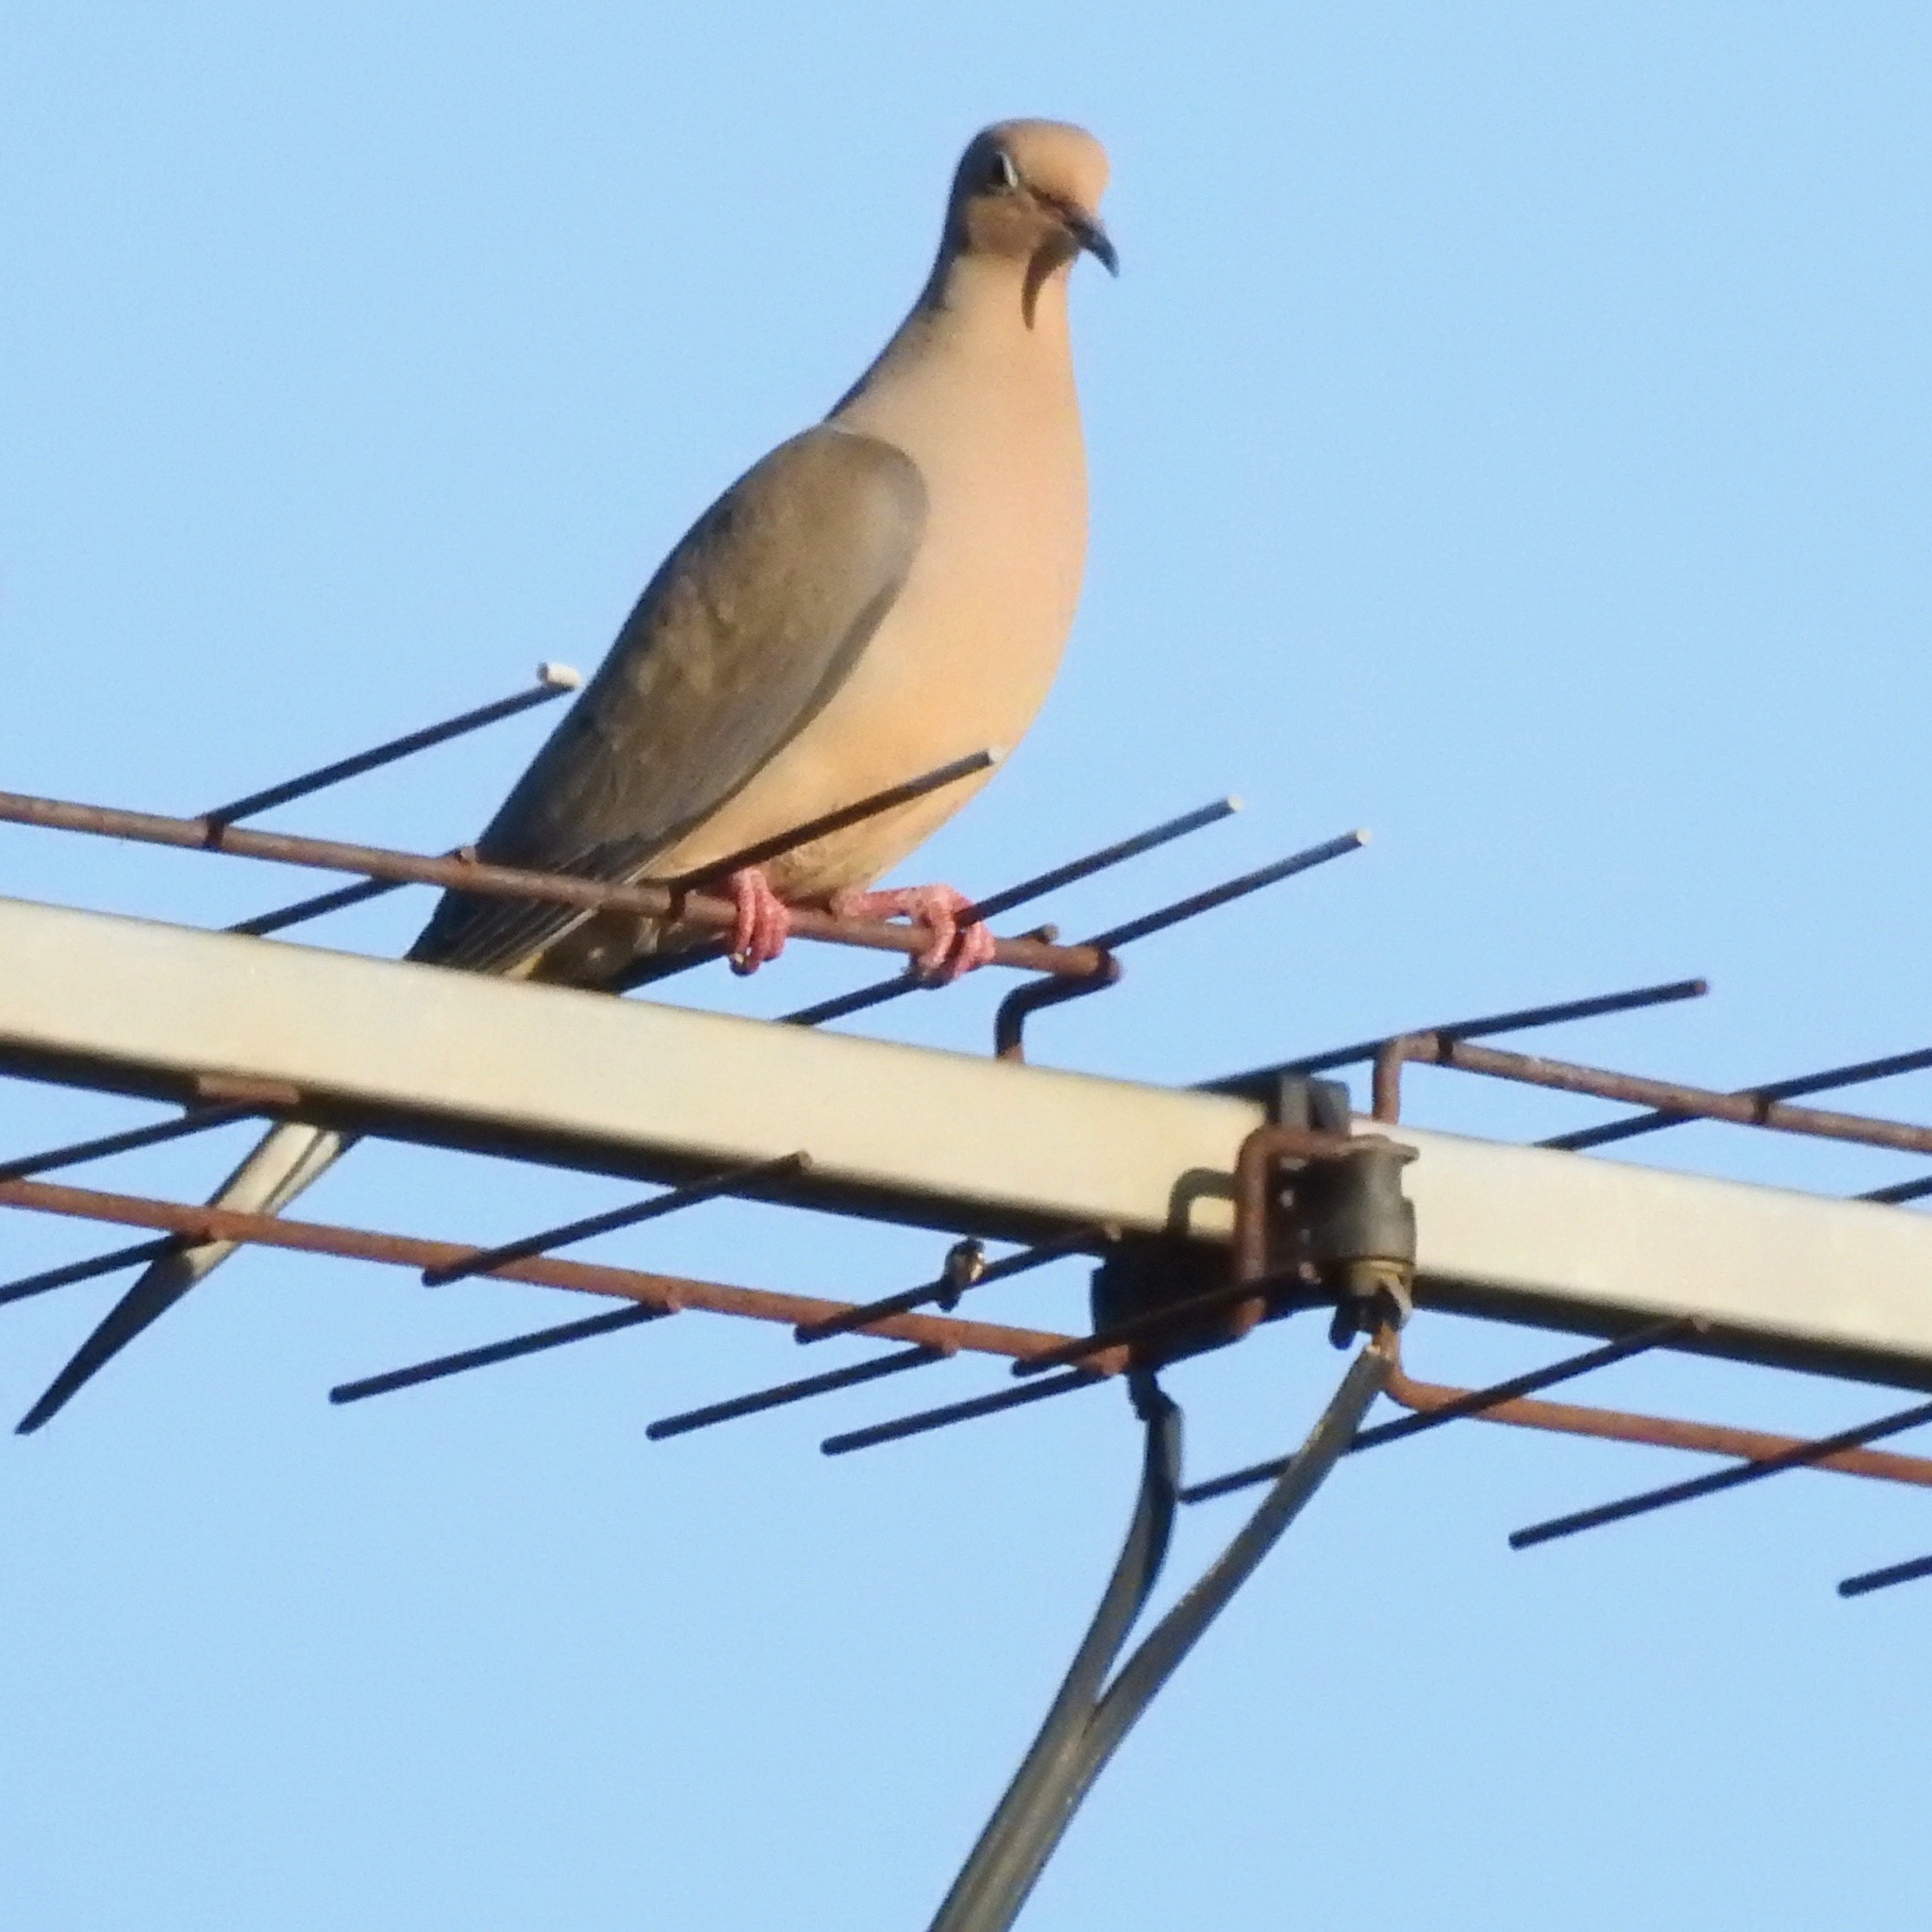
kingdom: Animalia
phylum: Chordata
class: Aves
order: Columbiformes
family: Columbidae
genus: Zenaida
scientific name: Zenaida macroura
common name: Mourning dove
